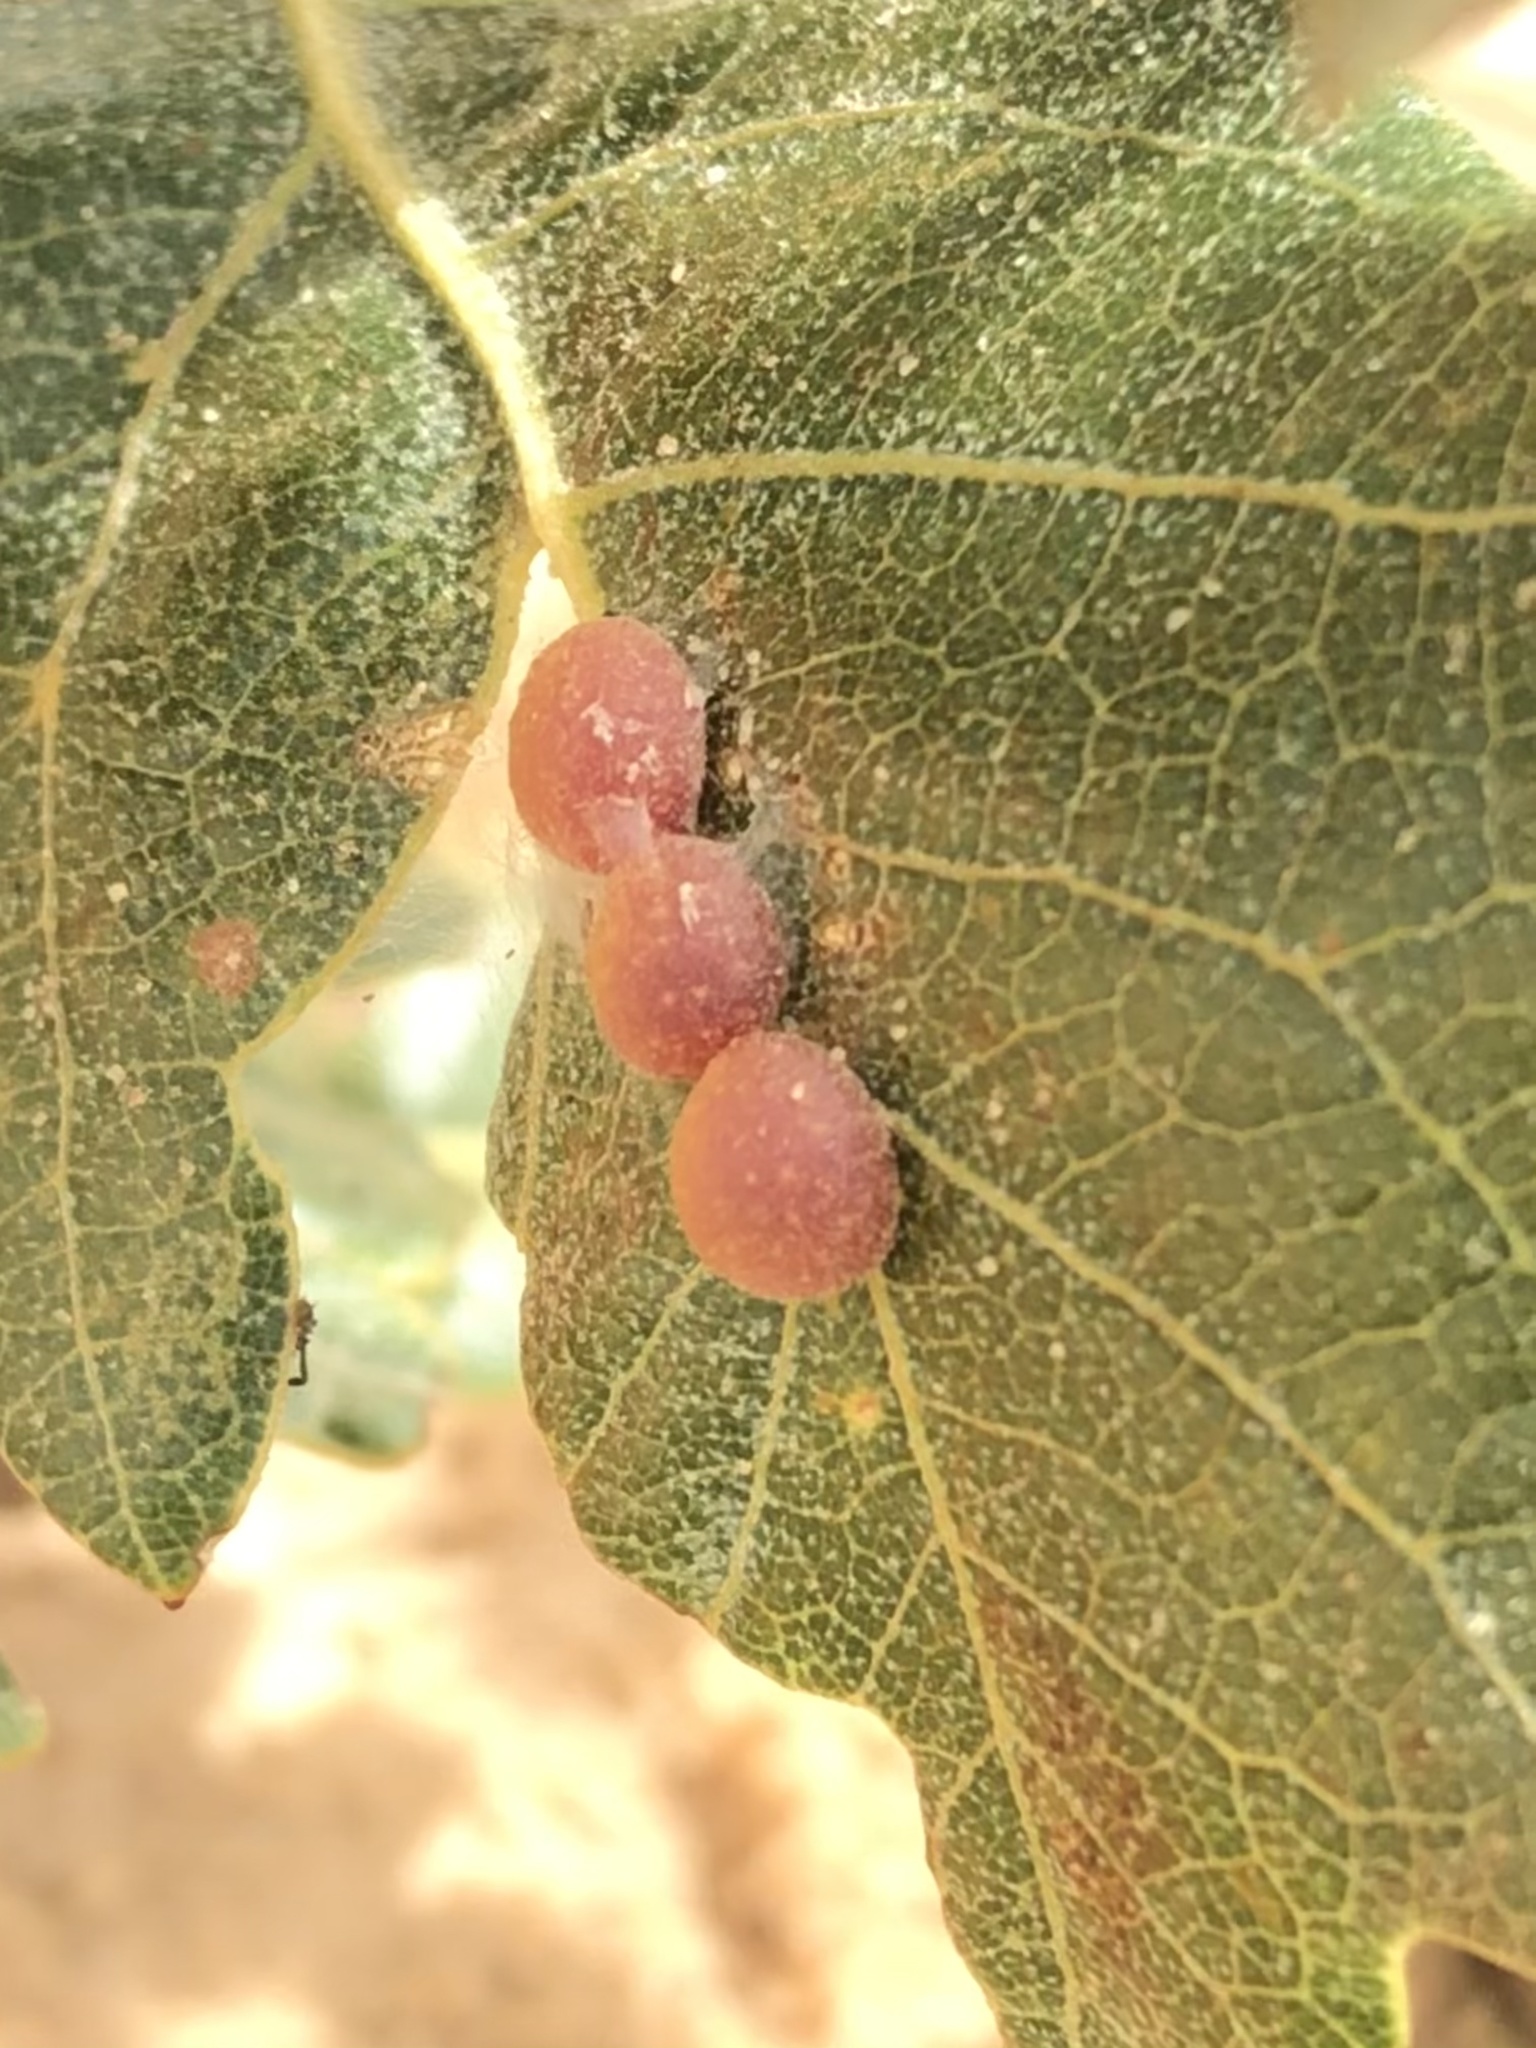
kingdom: Animalia
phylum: Arthropoda
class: Insecta
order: Hymenoptera
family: Cynipidae
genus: Trigonaspis
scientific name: Trigonaspis
